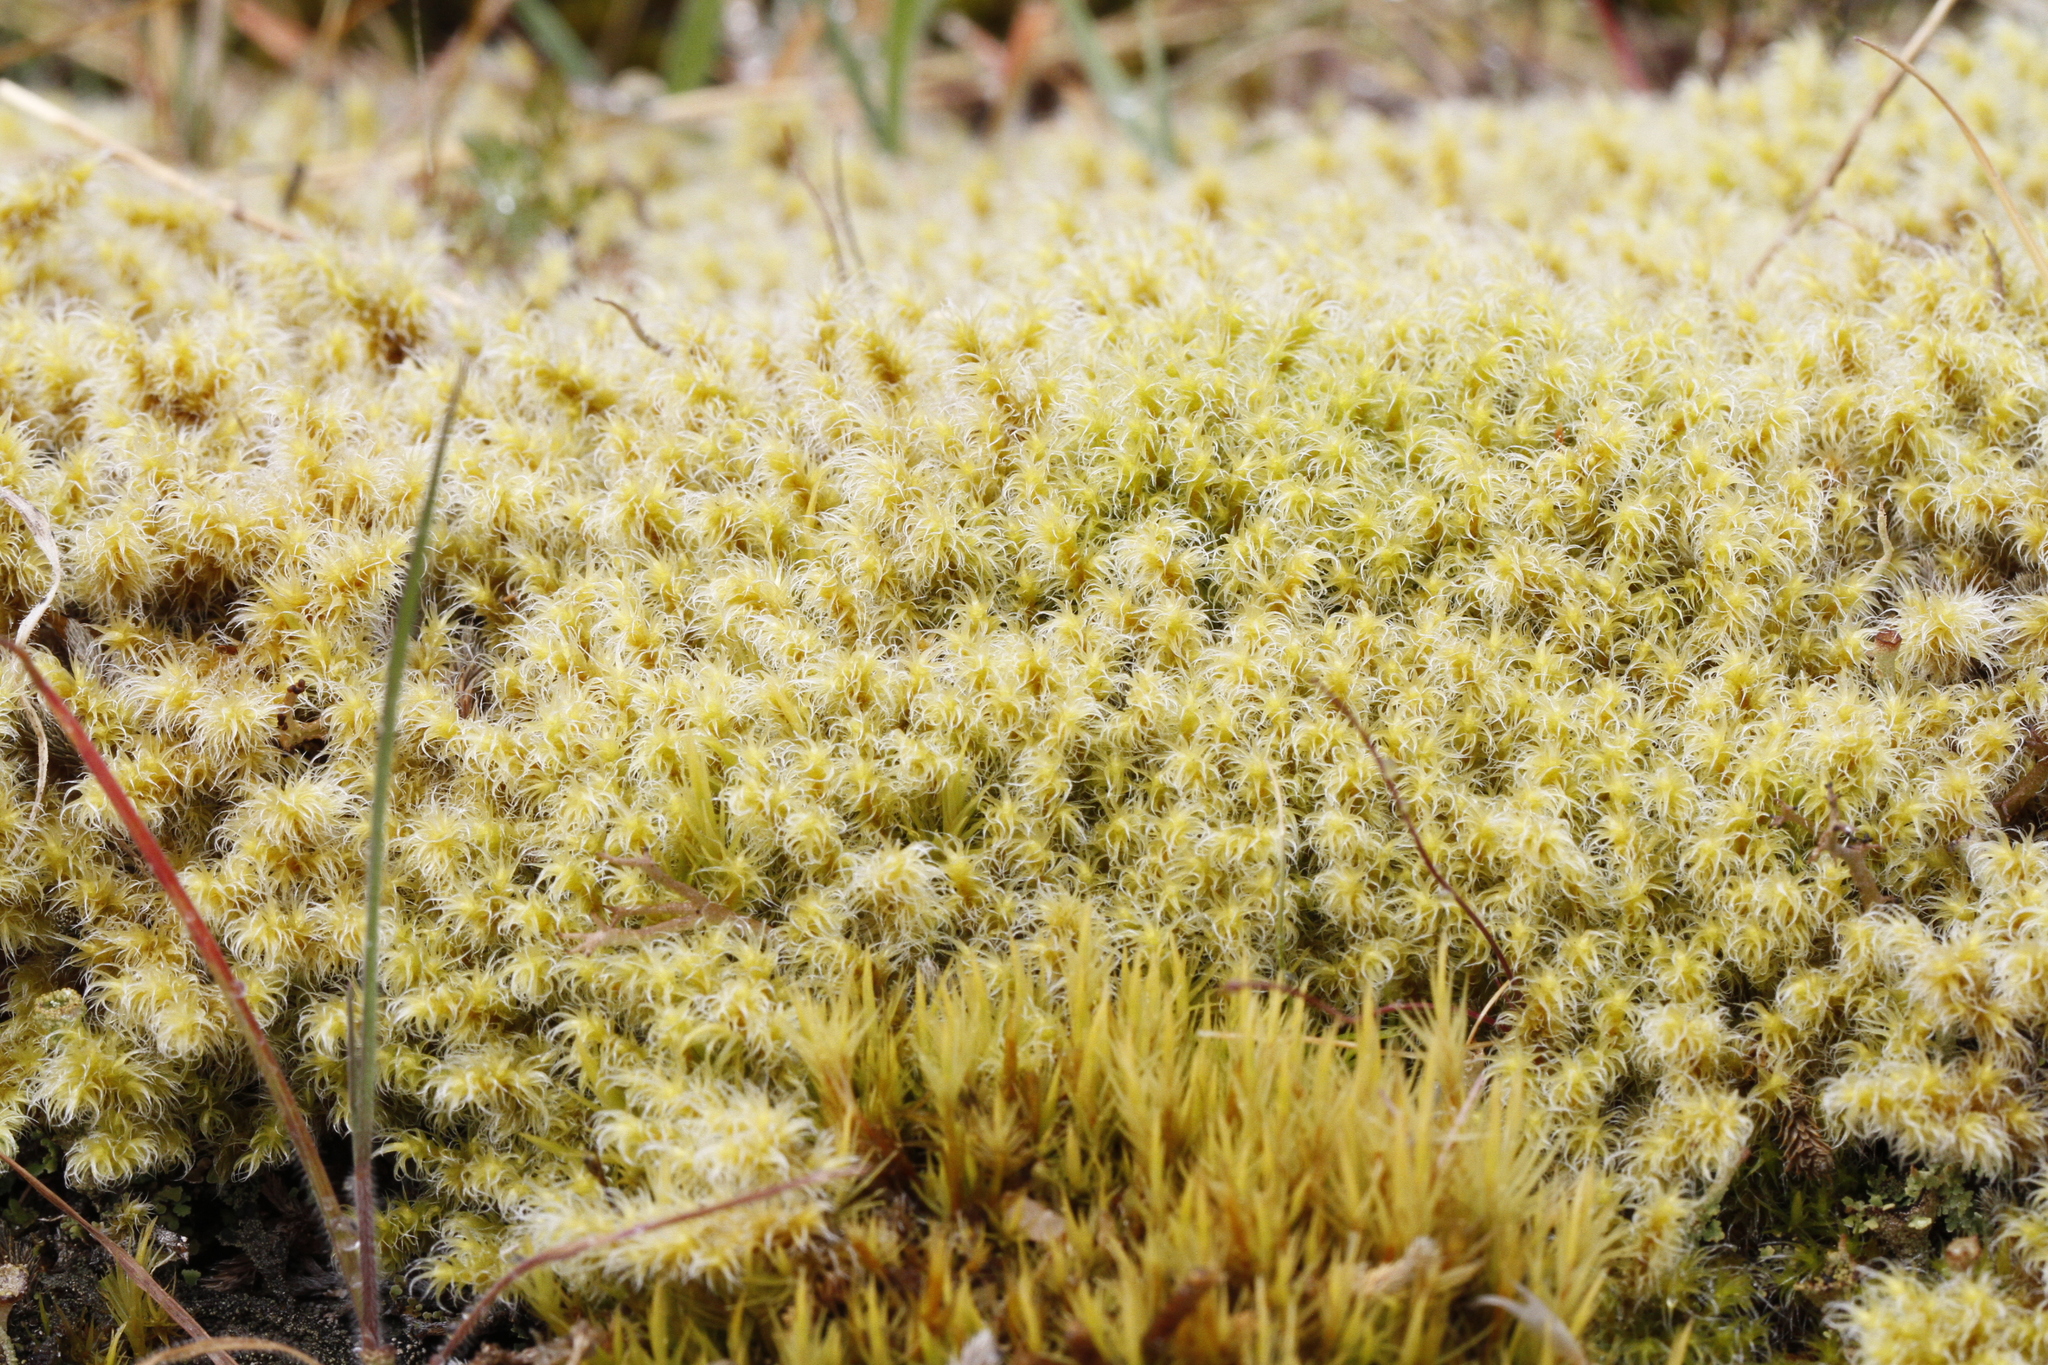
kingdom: Plantae
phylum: Bryophyta
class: Bryopsida
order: Grimmiales
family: Grimmiaceae
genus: Niphotrichum
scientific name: Niphotrichum elongatum
